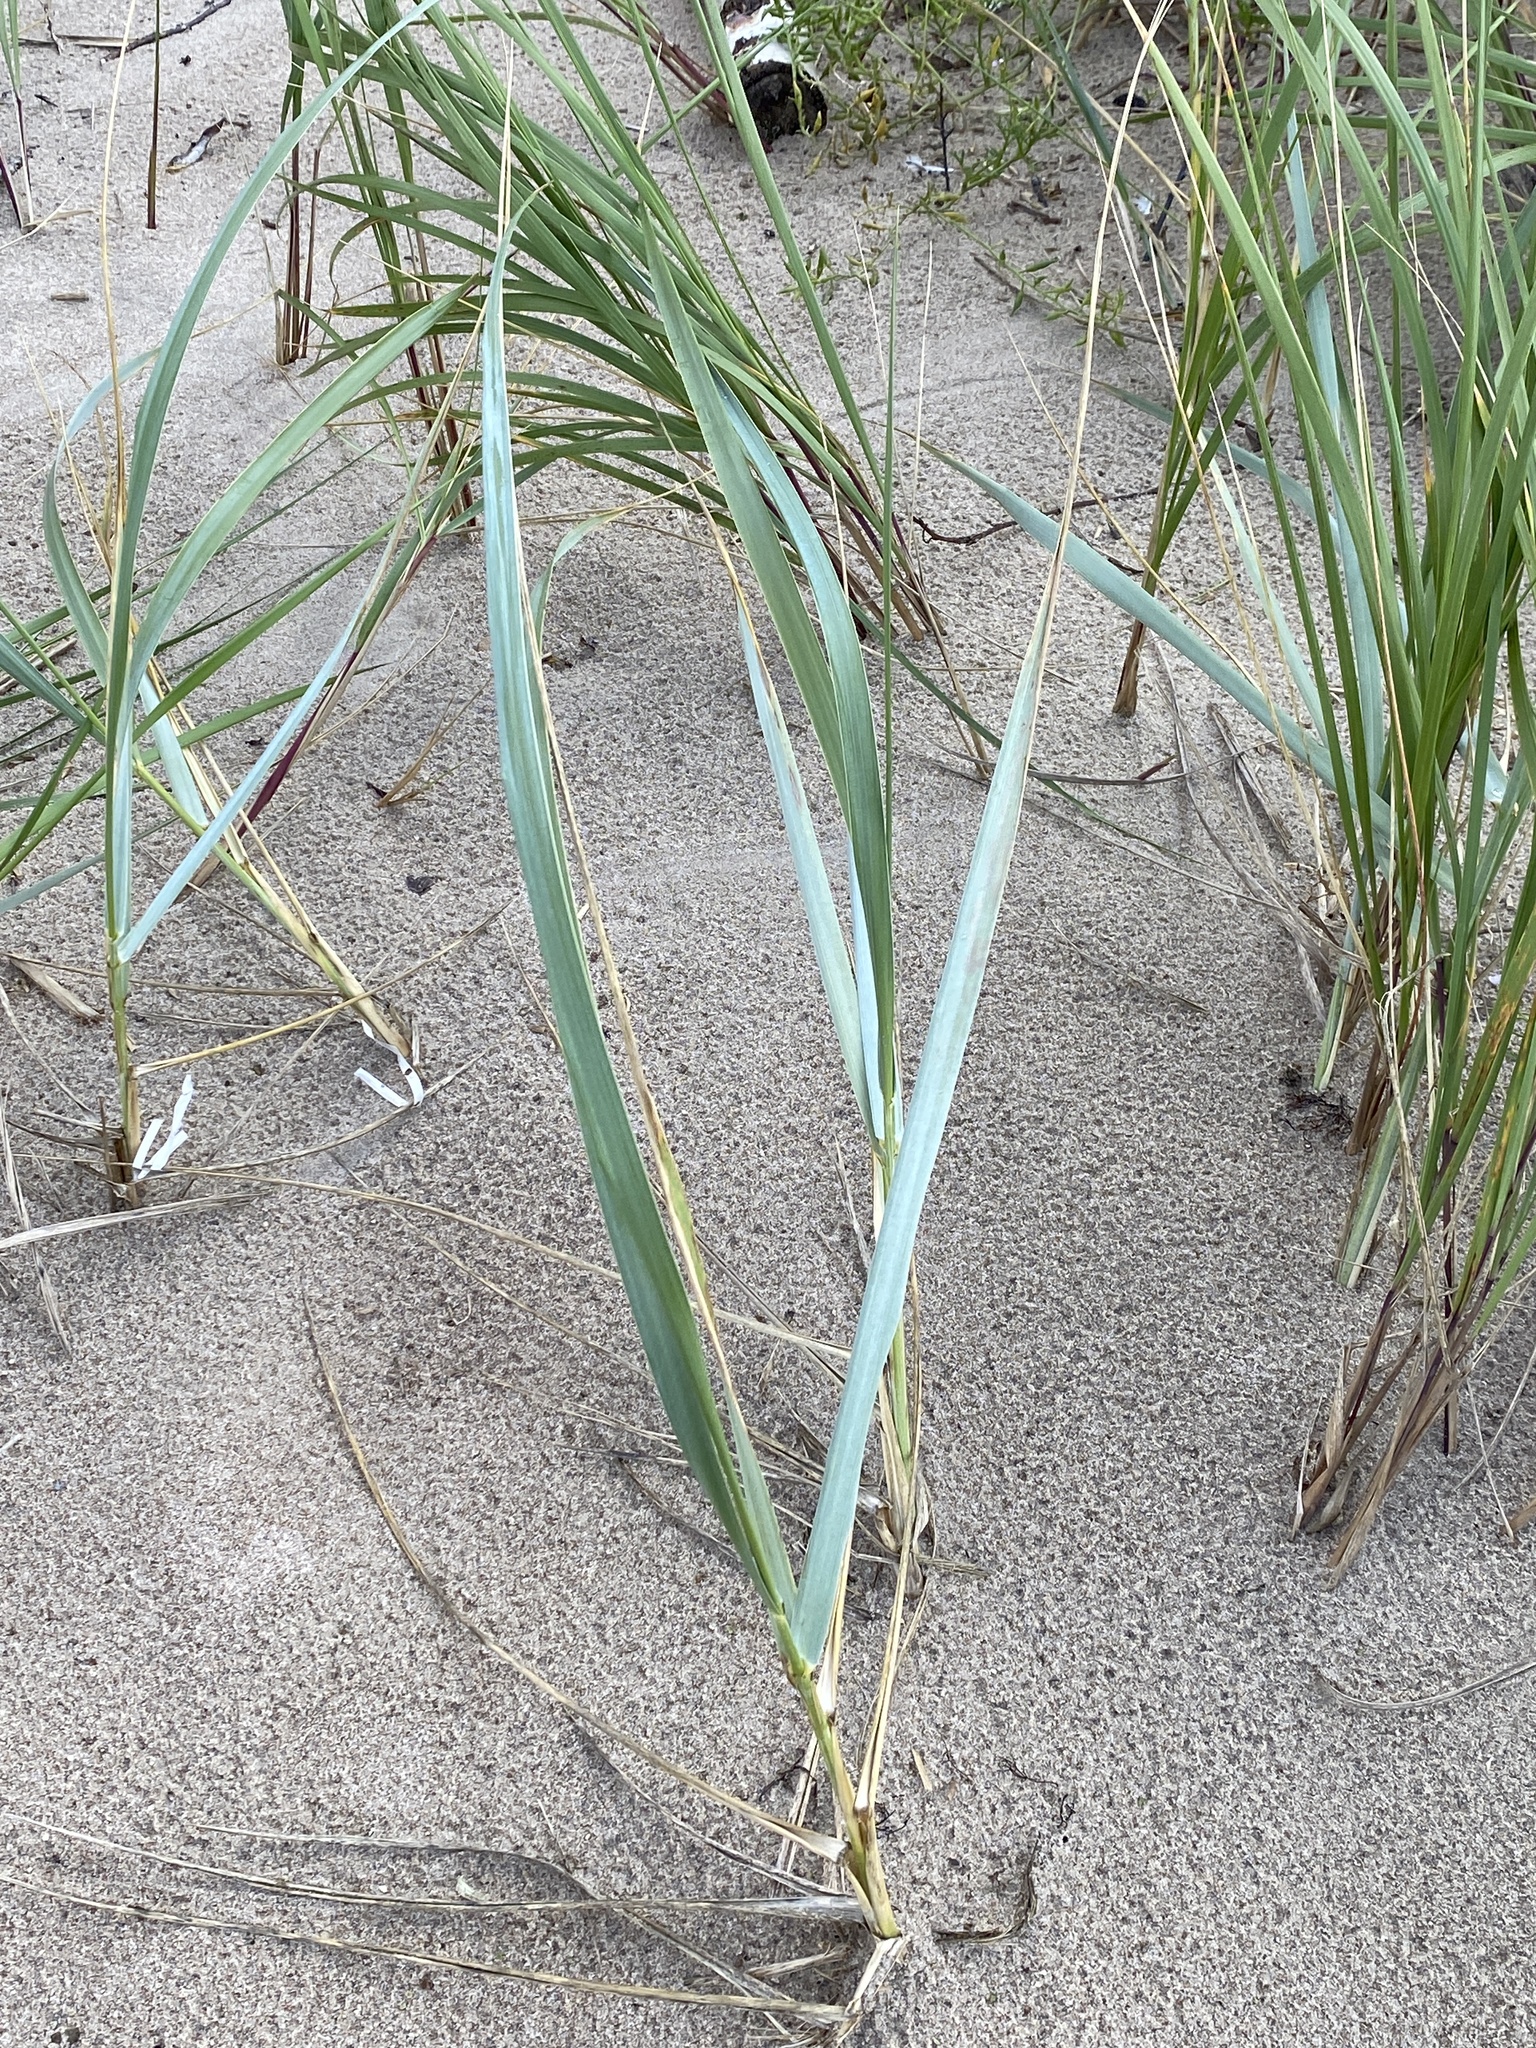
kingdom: Plantae
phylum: Tracheophyta
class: Liliopsida
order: Poales
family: Poaceae
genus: Leymus
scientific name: Leymus arenarius
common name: Lyme-grass
